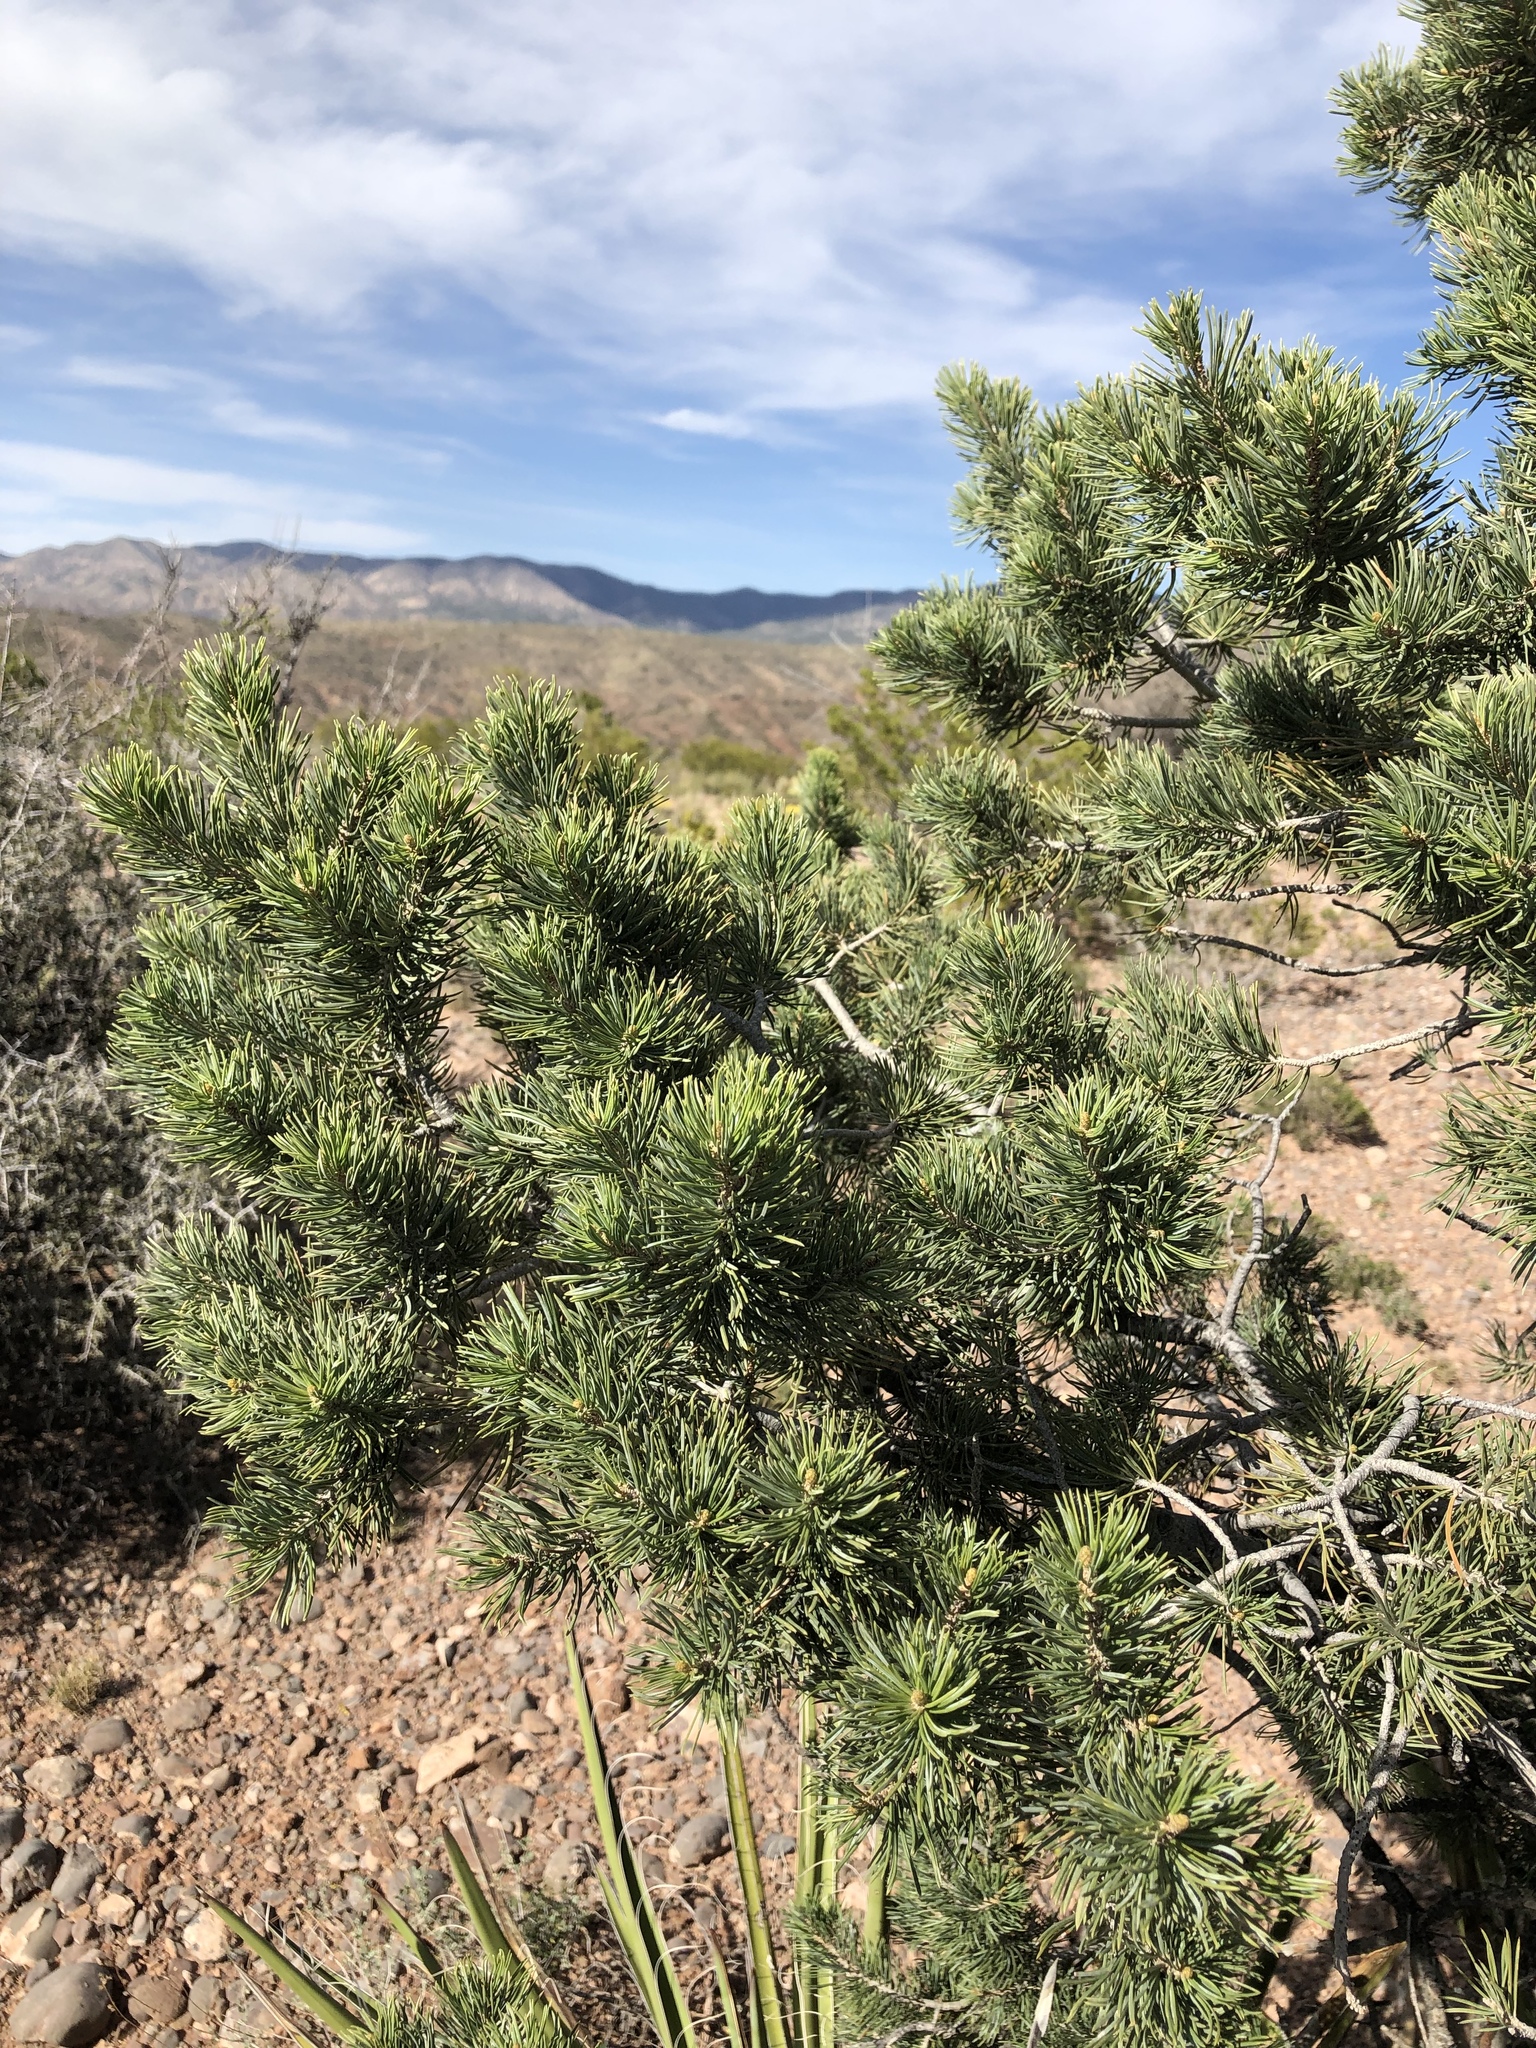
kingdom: Plantae
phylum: Tracheophyta
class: Pinopsida
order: Pinales
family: Pinaceae
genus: Pinus
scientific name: Pinus edulis
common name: Colorado pinyon
